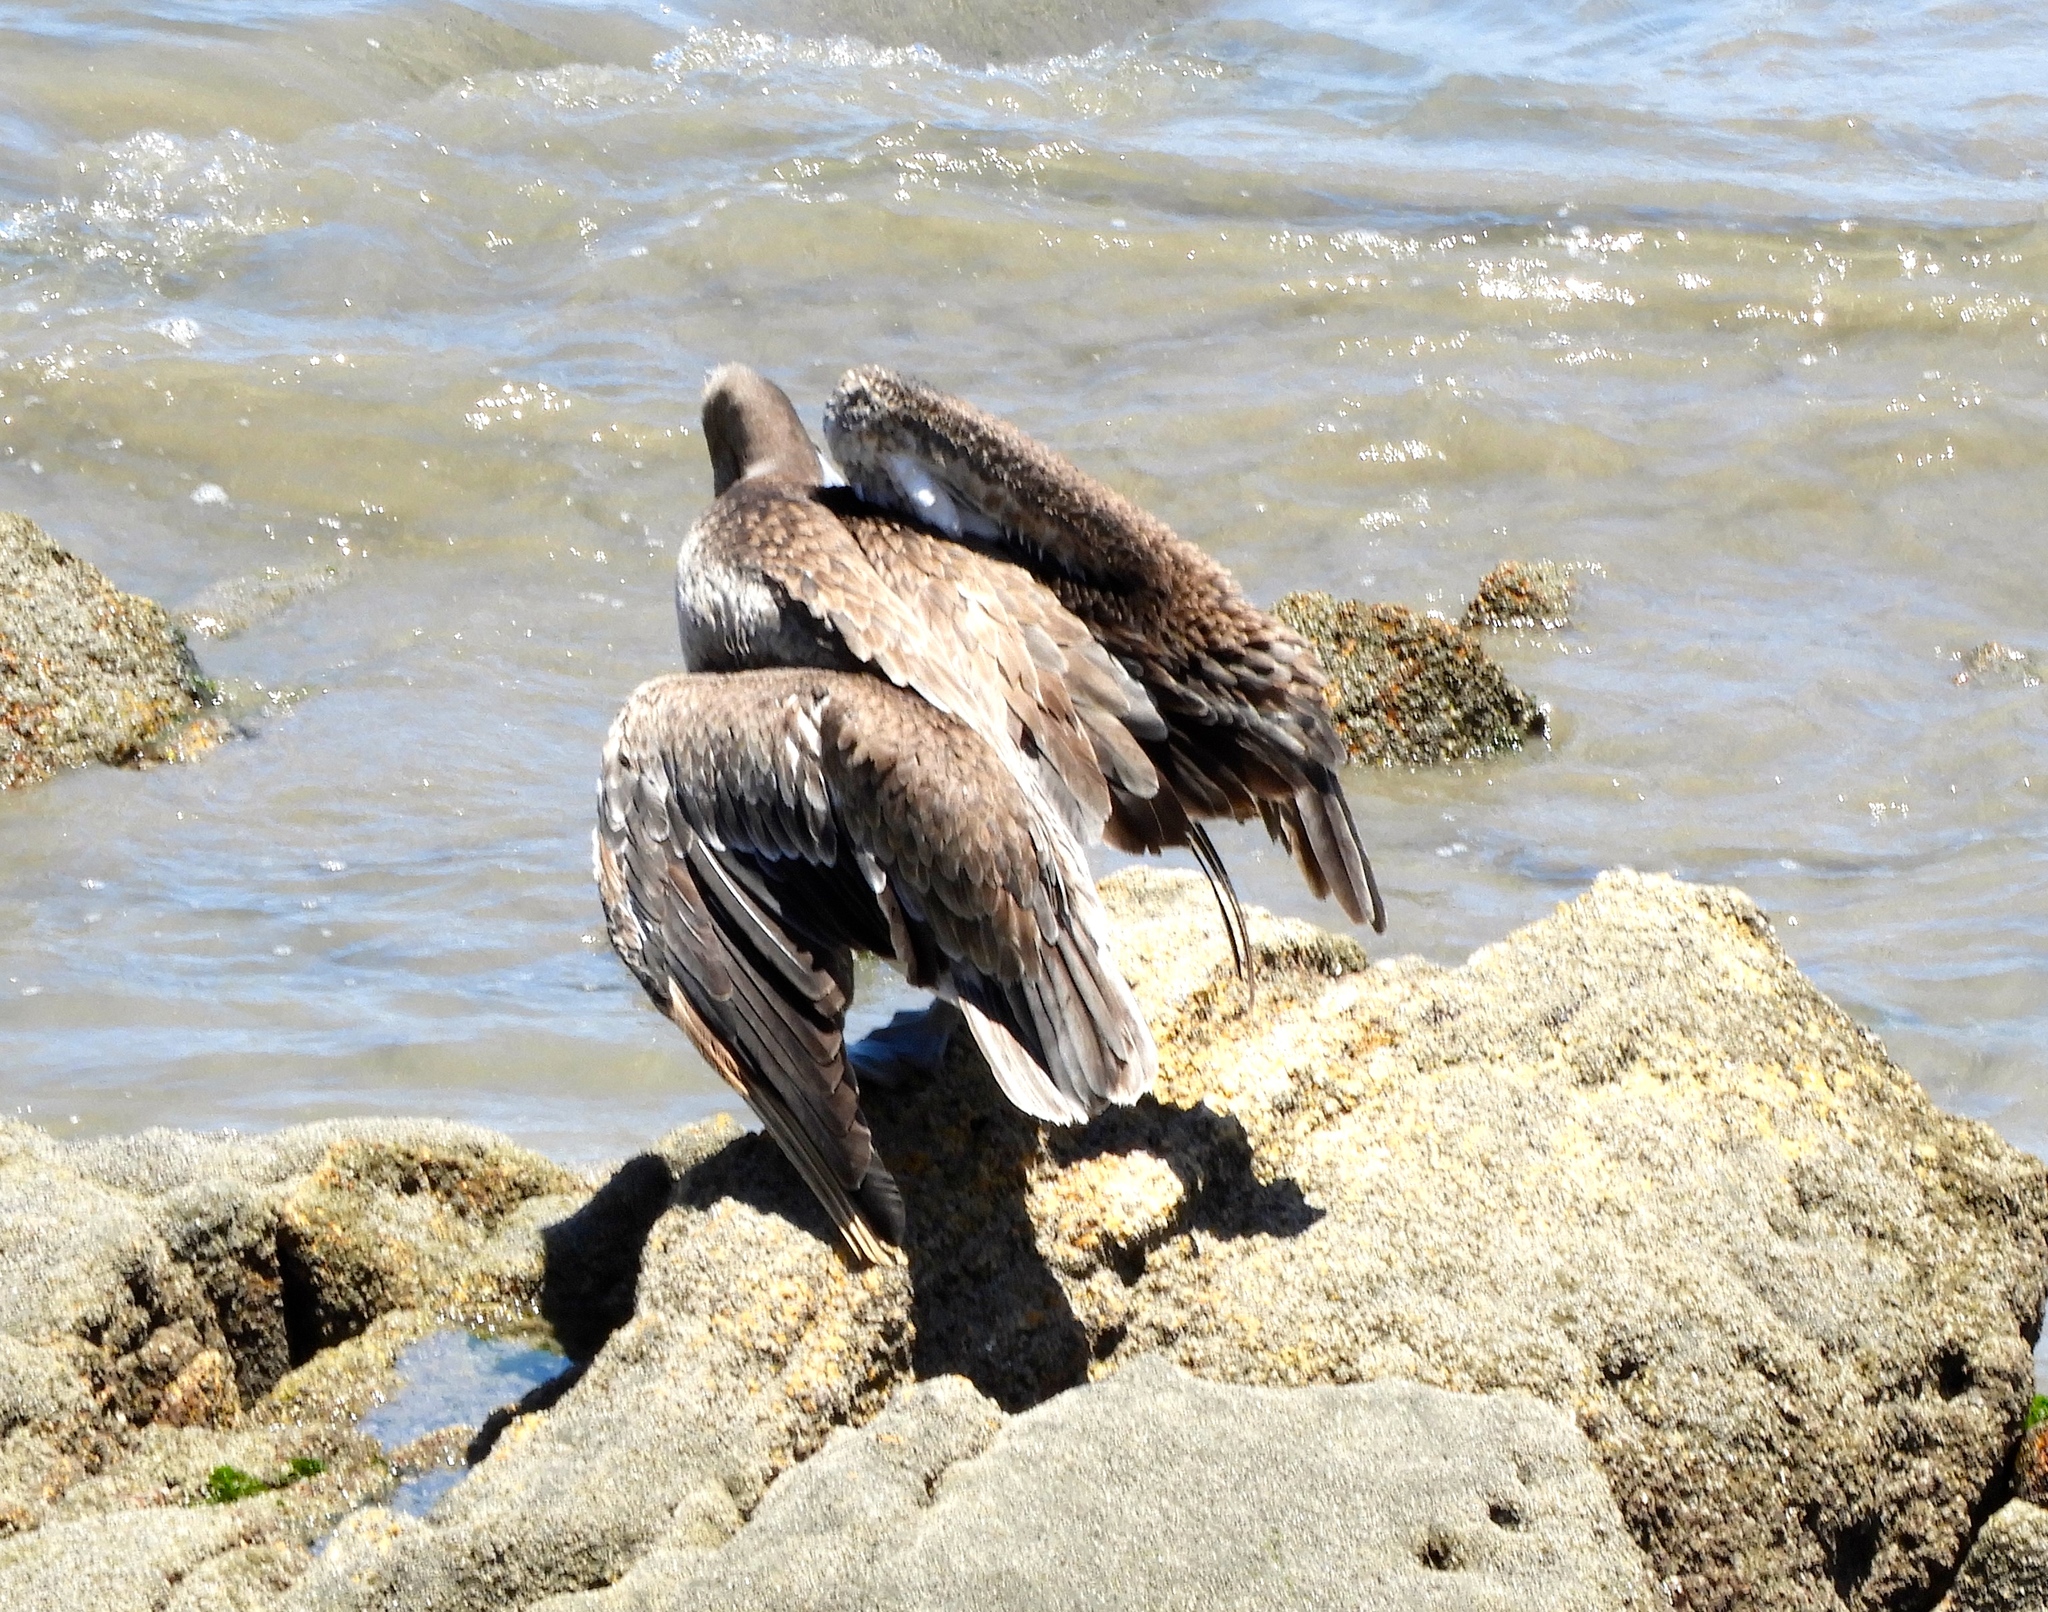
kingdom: Animalia
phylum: Chordata
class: Aves
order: Pelecaniformes
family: Pelecanidae
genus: Pelecanus
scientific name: Pelecanus occidentalis
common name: Brown pelican
